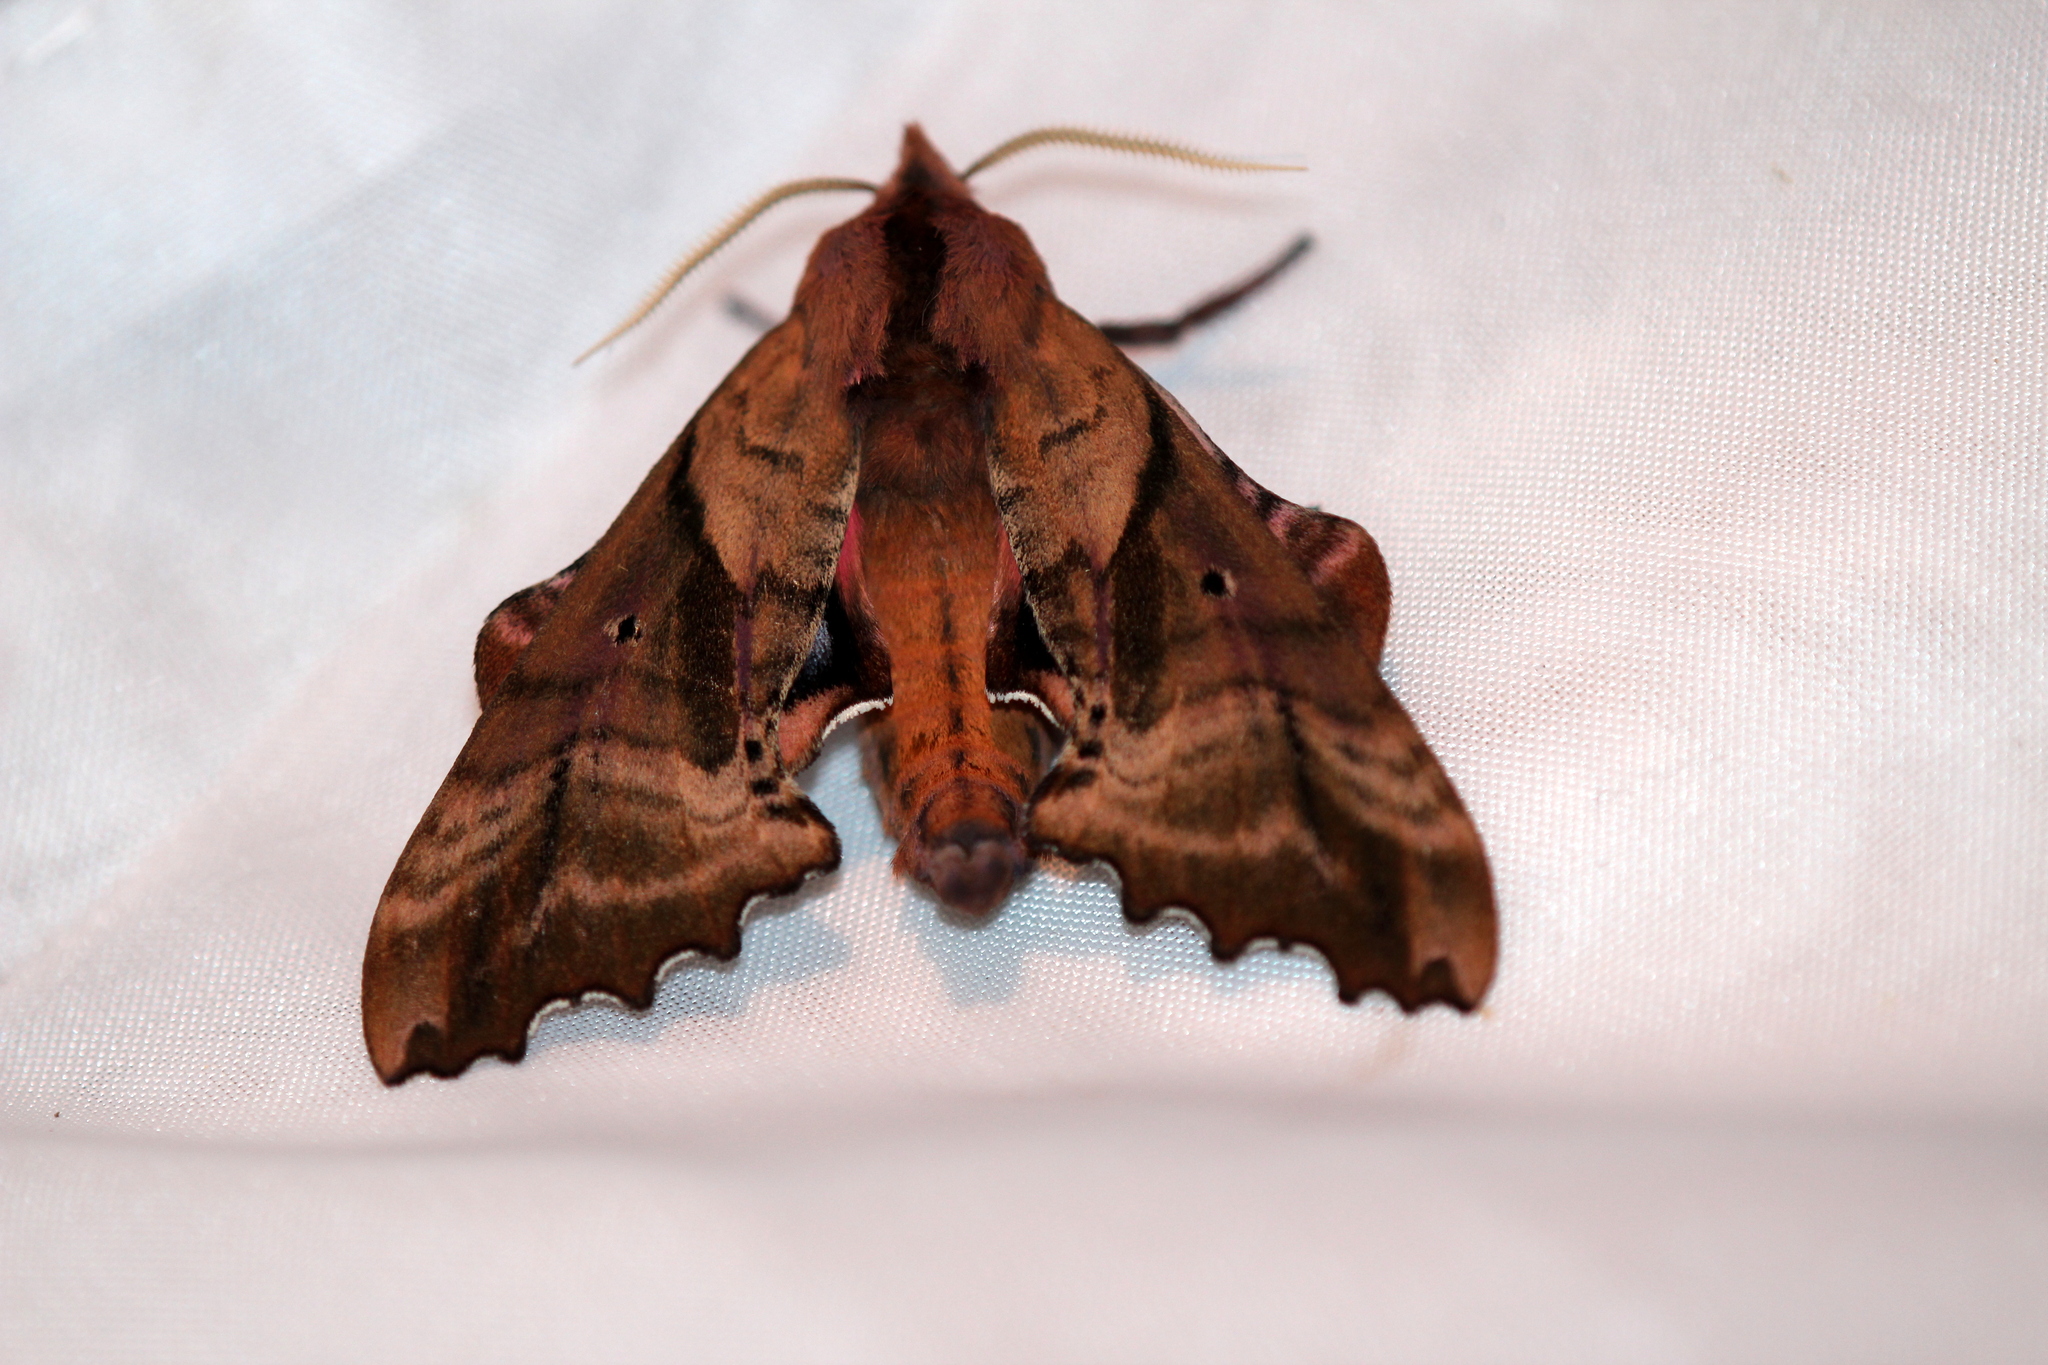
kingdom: Animalia
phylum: Arthropoda
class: Insecta
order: Lepidoptera
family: Sphingidae
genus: Paonias
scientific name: Paonias excaecata
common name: Blind-eyed sphinx
